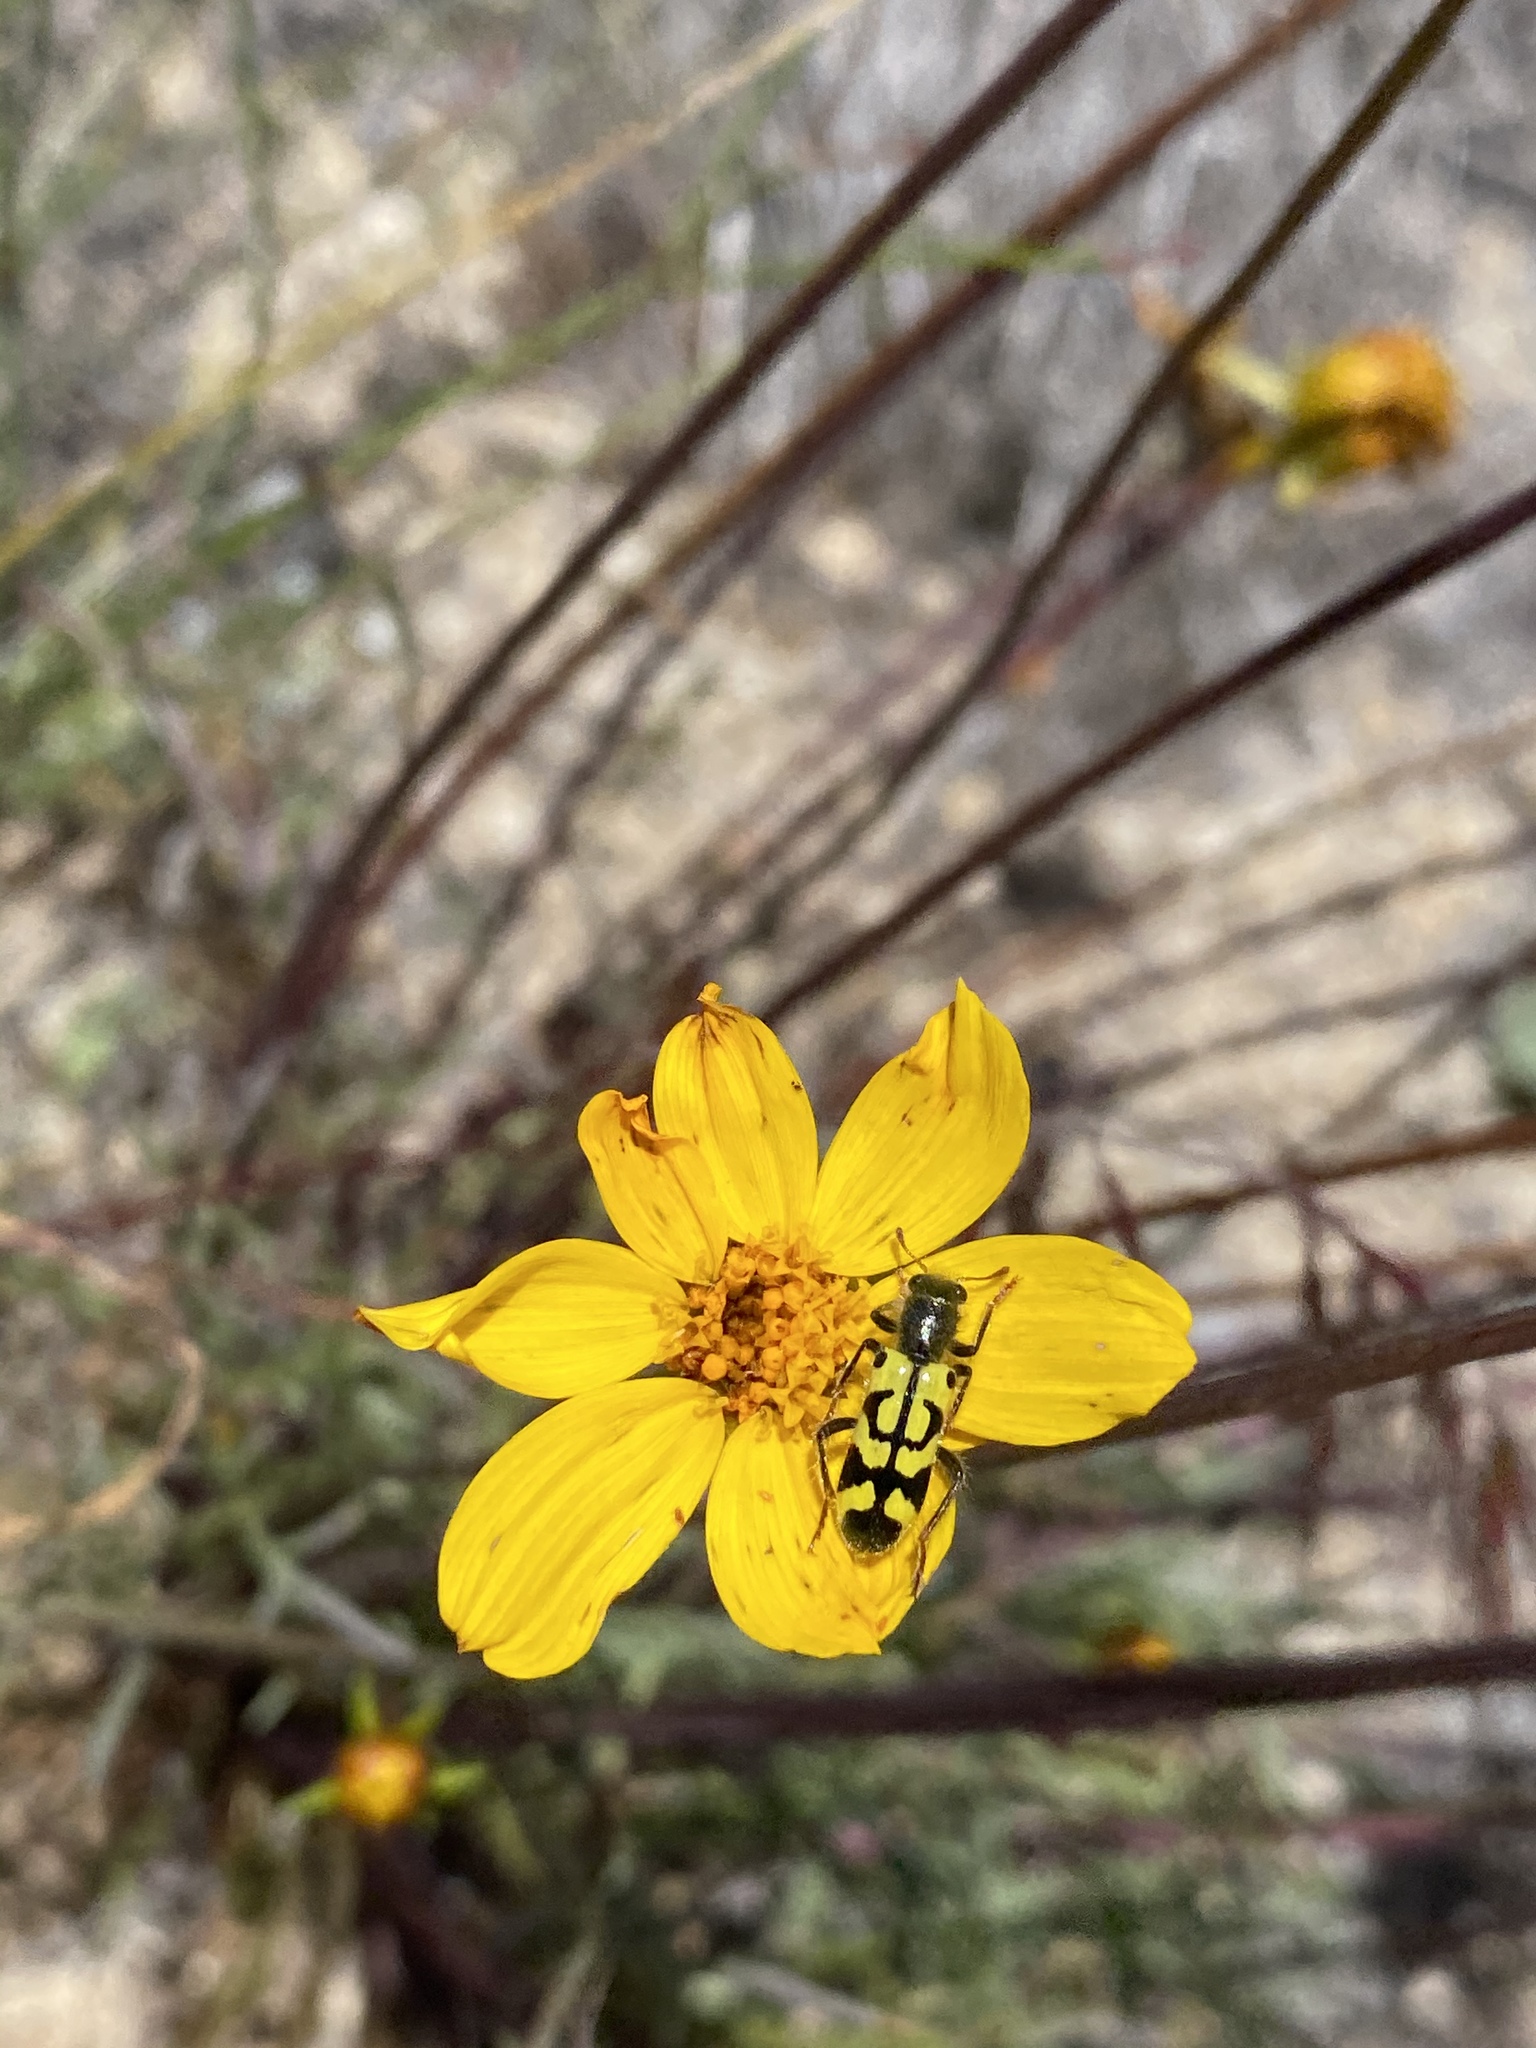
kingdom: Animalia
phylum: Arthropoda
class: Insecta
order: Coleoptera
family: Cleridae
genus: Trichodes
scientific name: Trichodes ornatus
